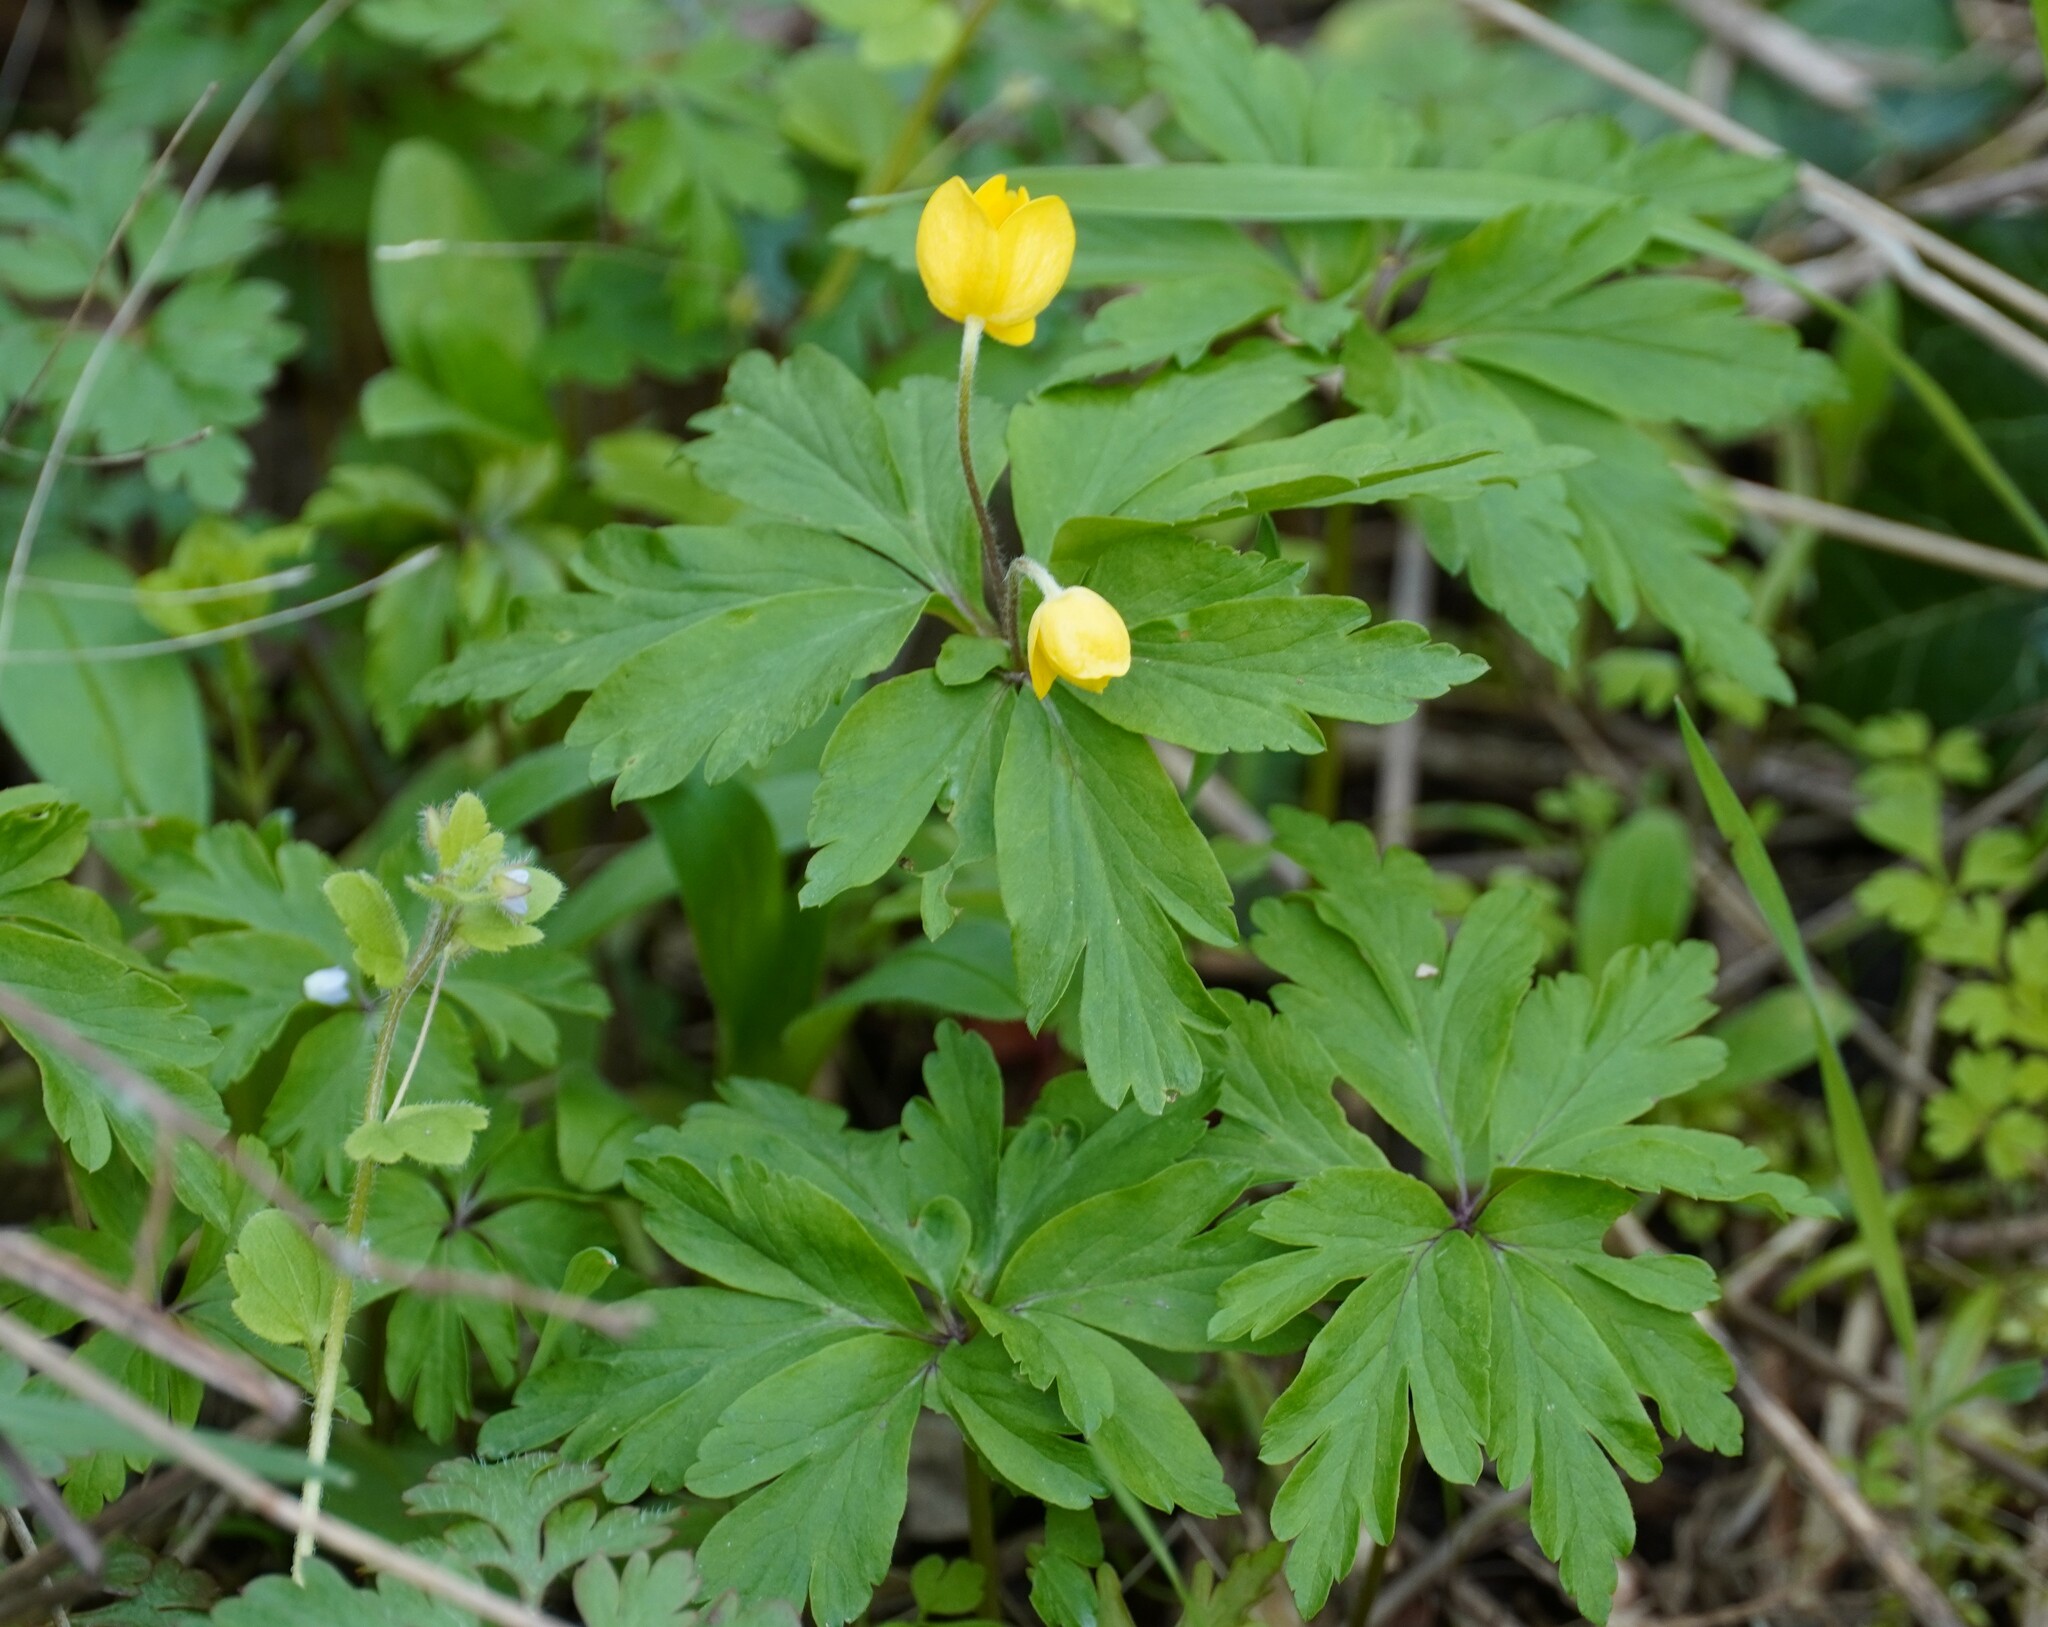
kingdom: Plantae
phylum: Tracheophyta
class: Magnoliopsida
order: Ranunculales
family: Ranunculaceae
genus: Anemone
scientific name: Anemone ranunculoides
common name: Yellow anemone
